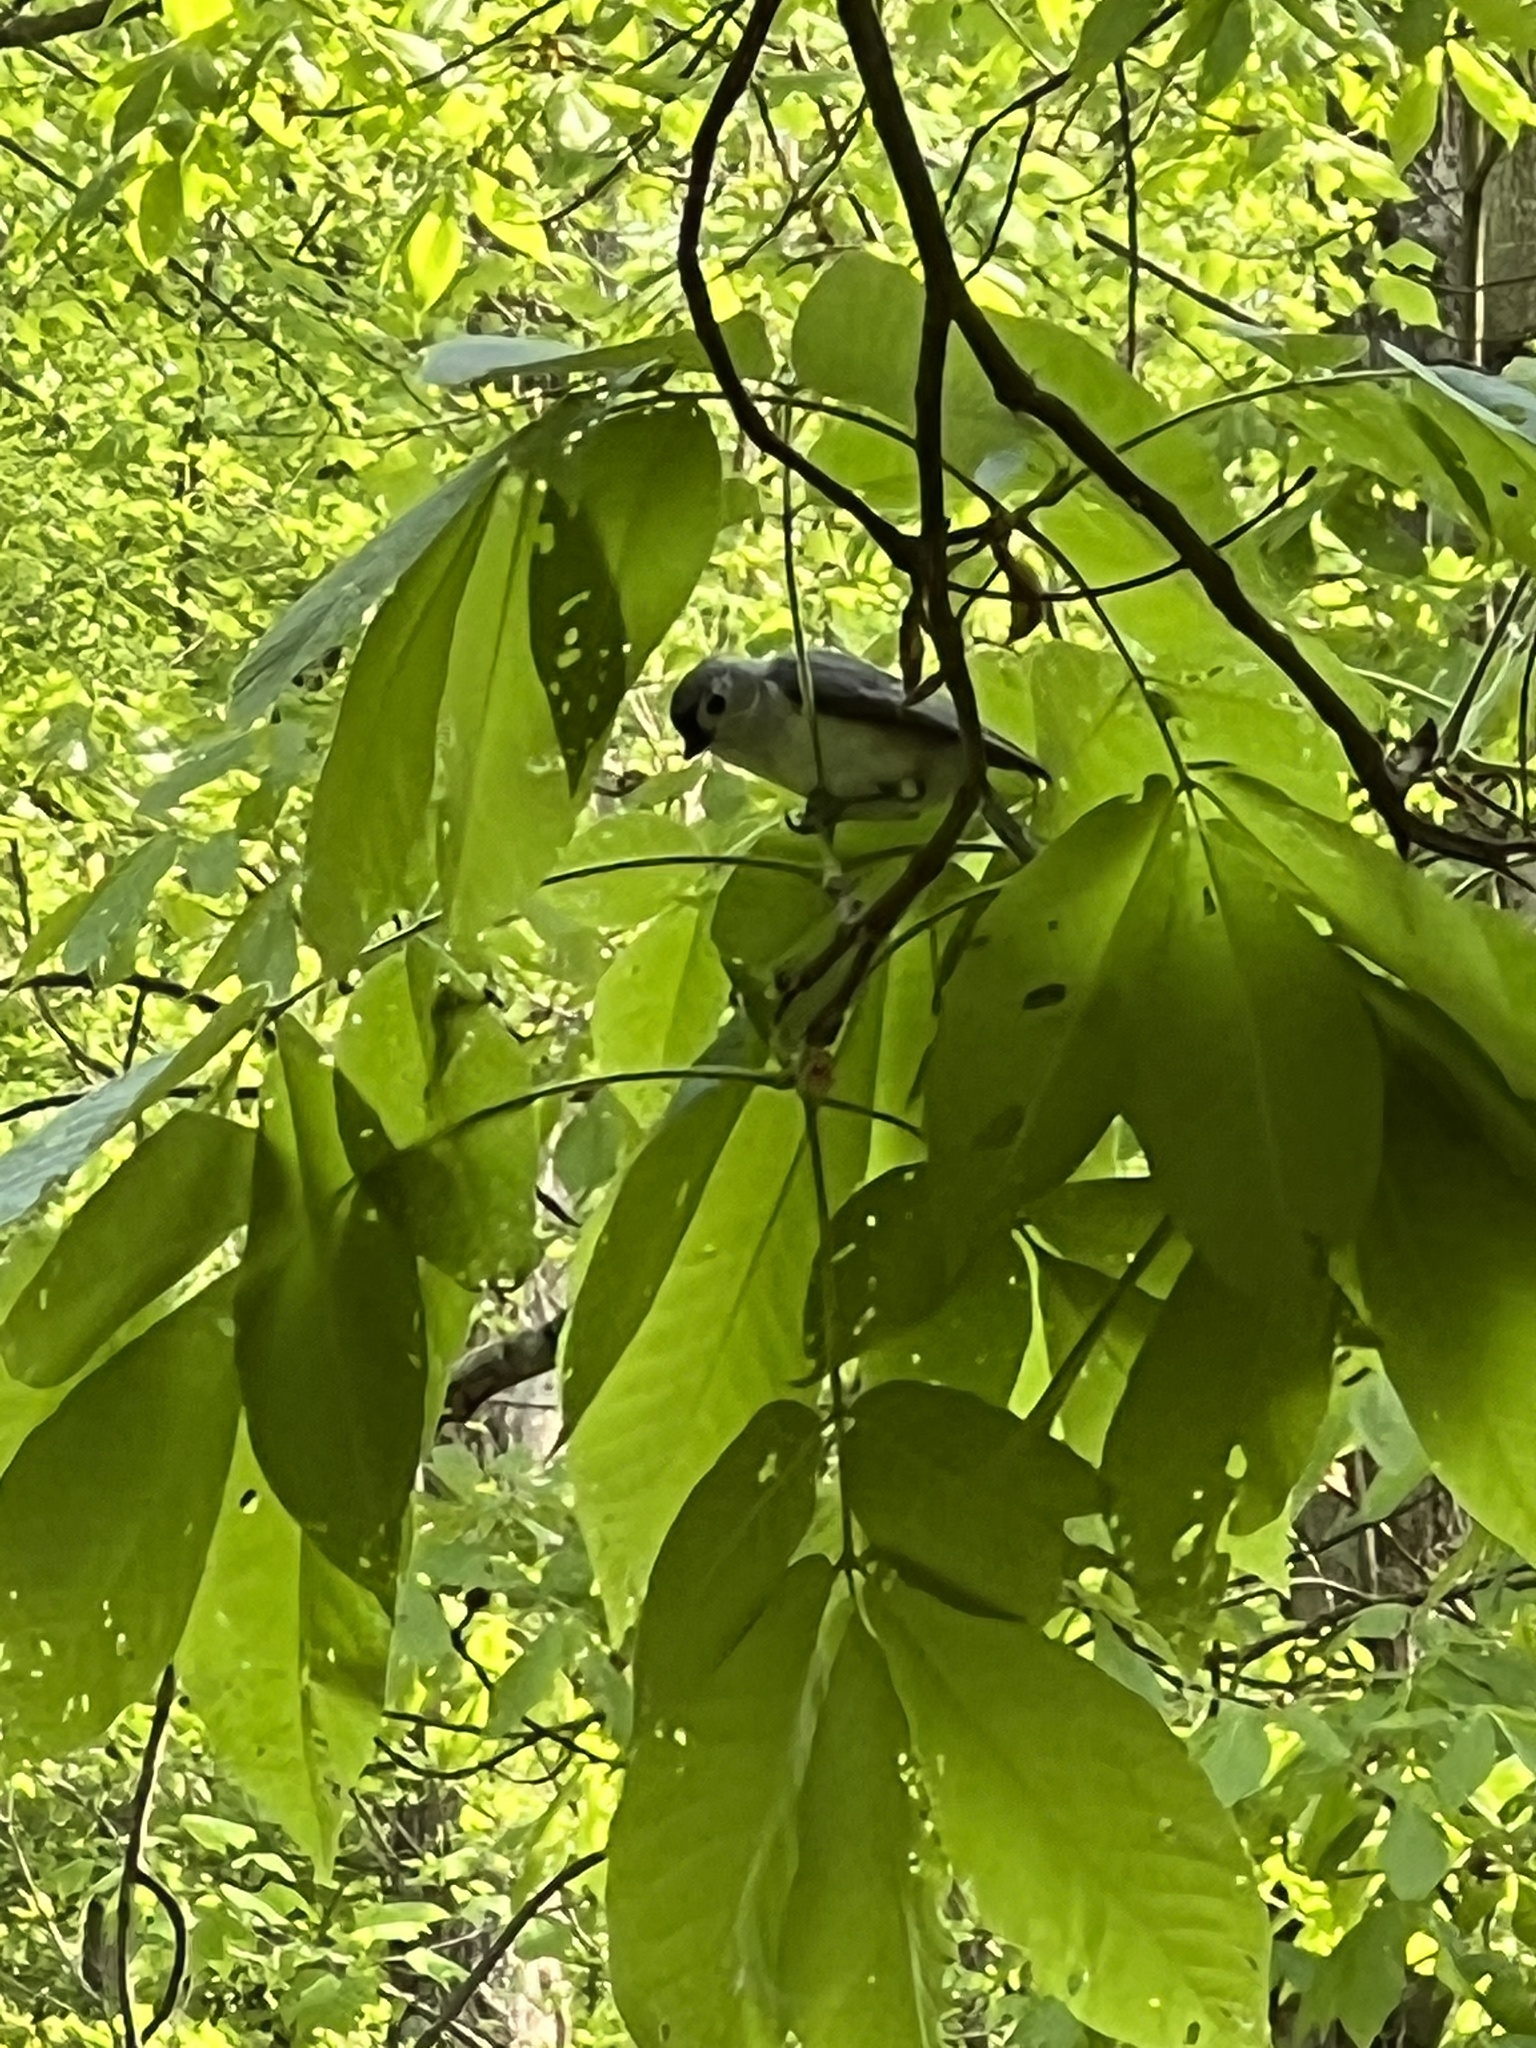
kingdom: Animalia
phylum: Chordata
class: Aves
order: Passeriformes
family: Paridae
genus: Baeolophus
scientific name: Baeolophus bicolor
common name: Tufted titmouse
